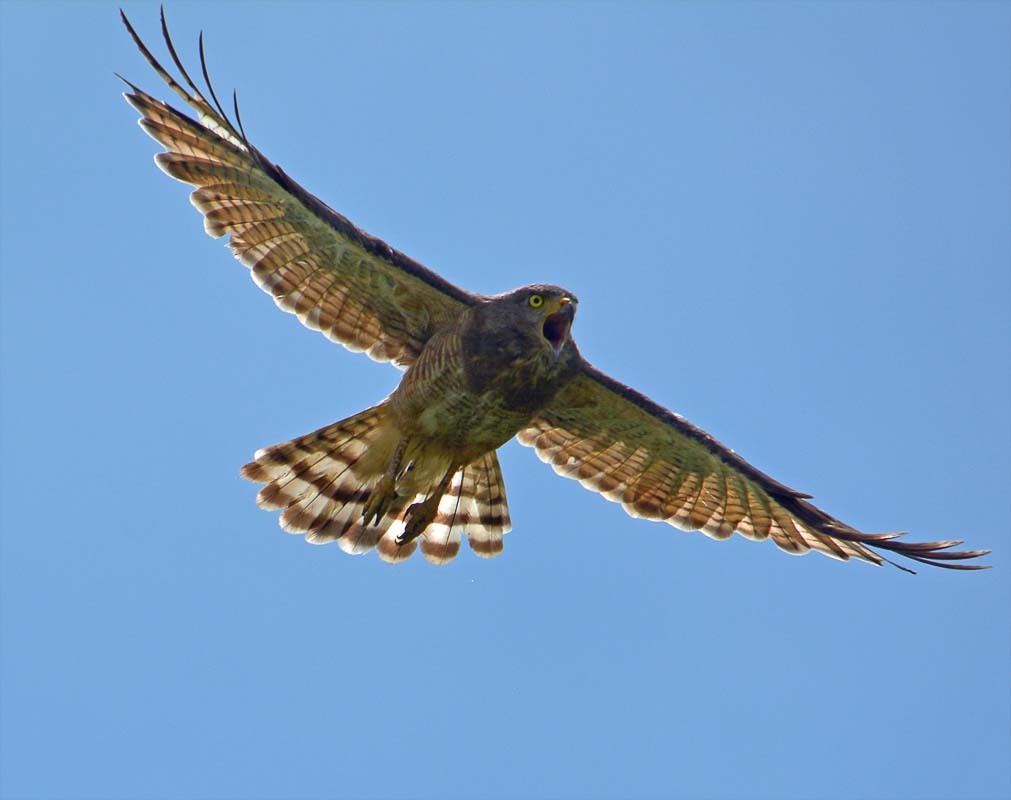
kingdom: Animalia
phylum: Chordata
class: Aves
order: Accipitriformes
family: Accipitridae
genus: Rupornis
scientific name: Rupornis magnirostris
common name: Roadside hawk
